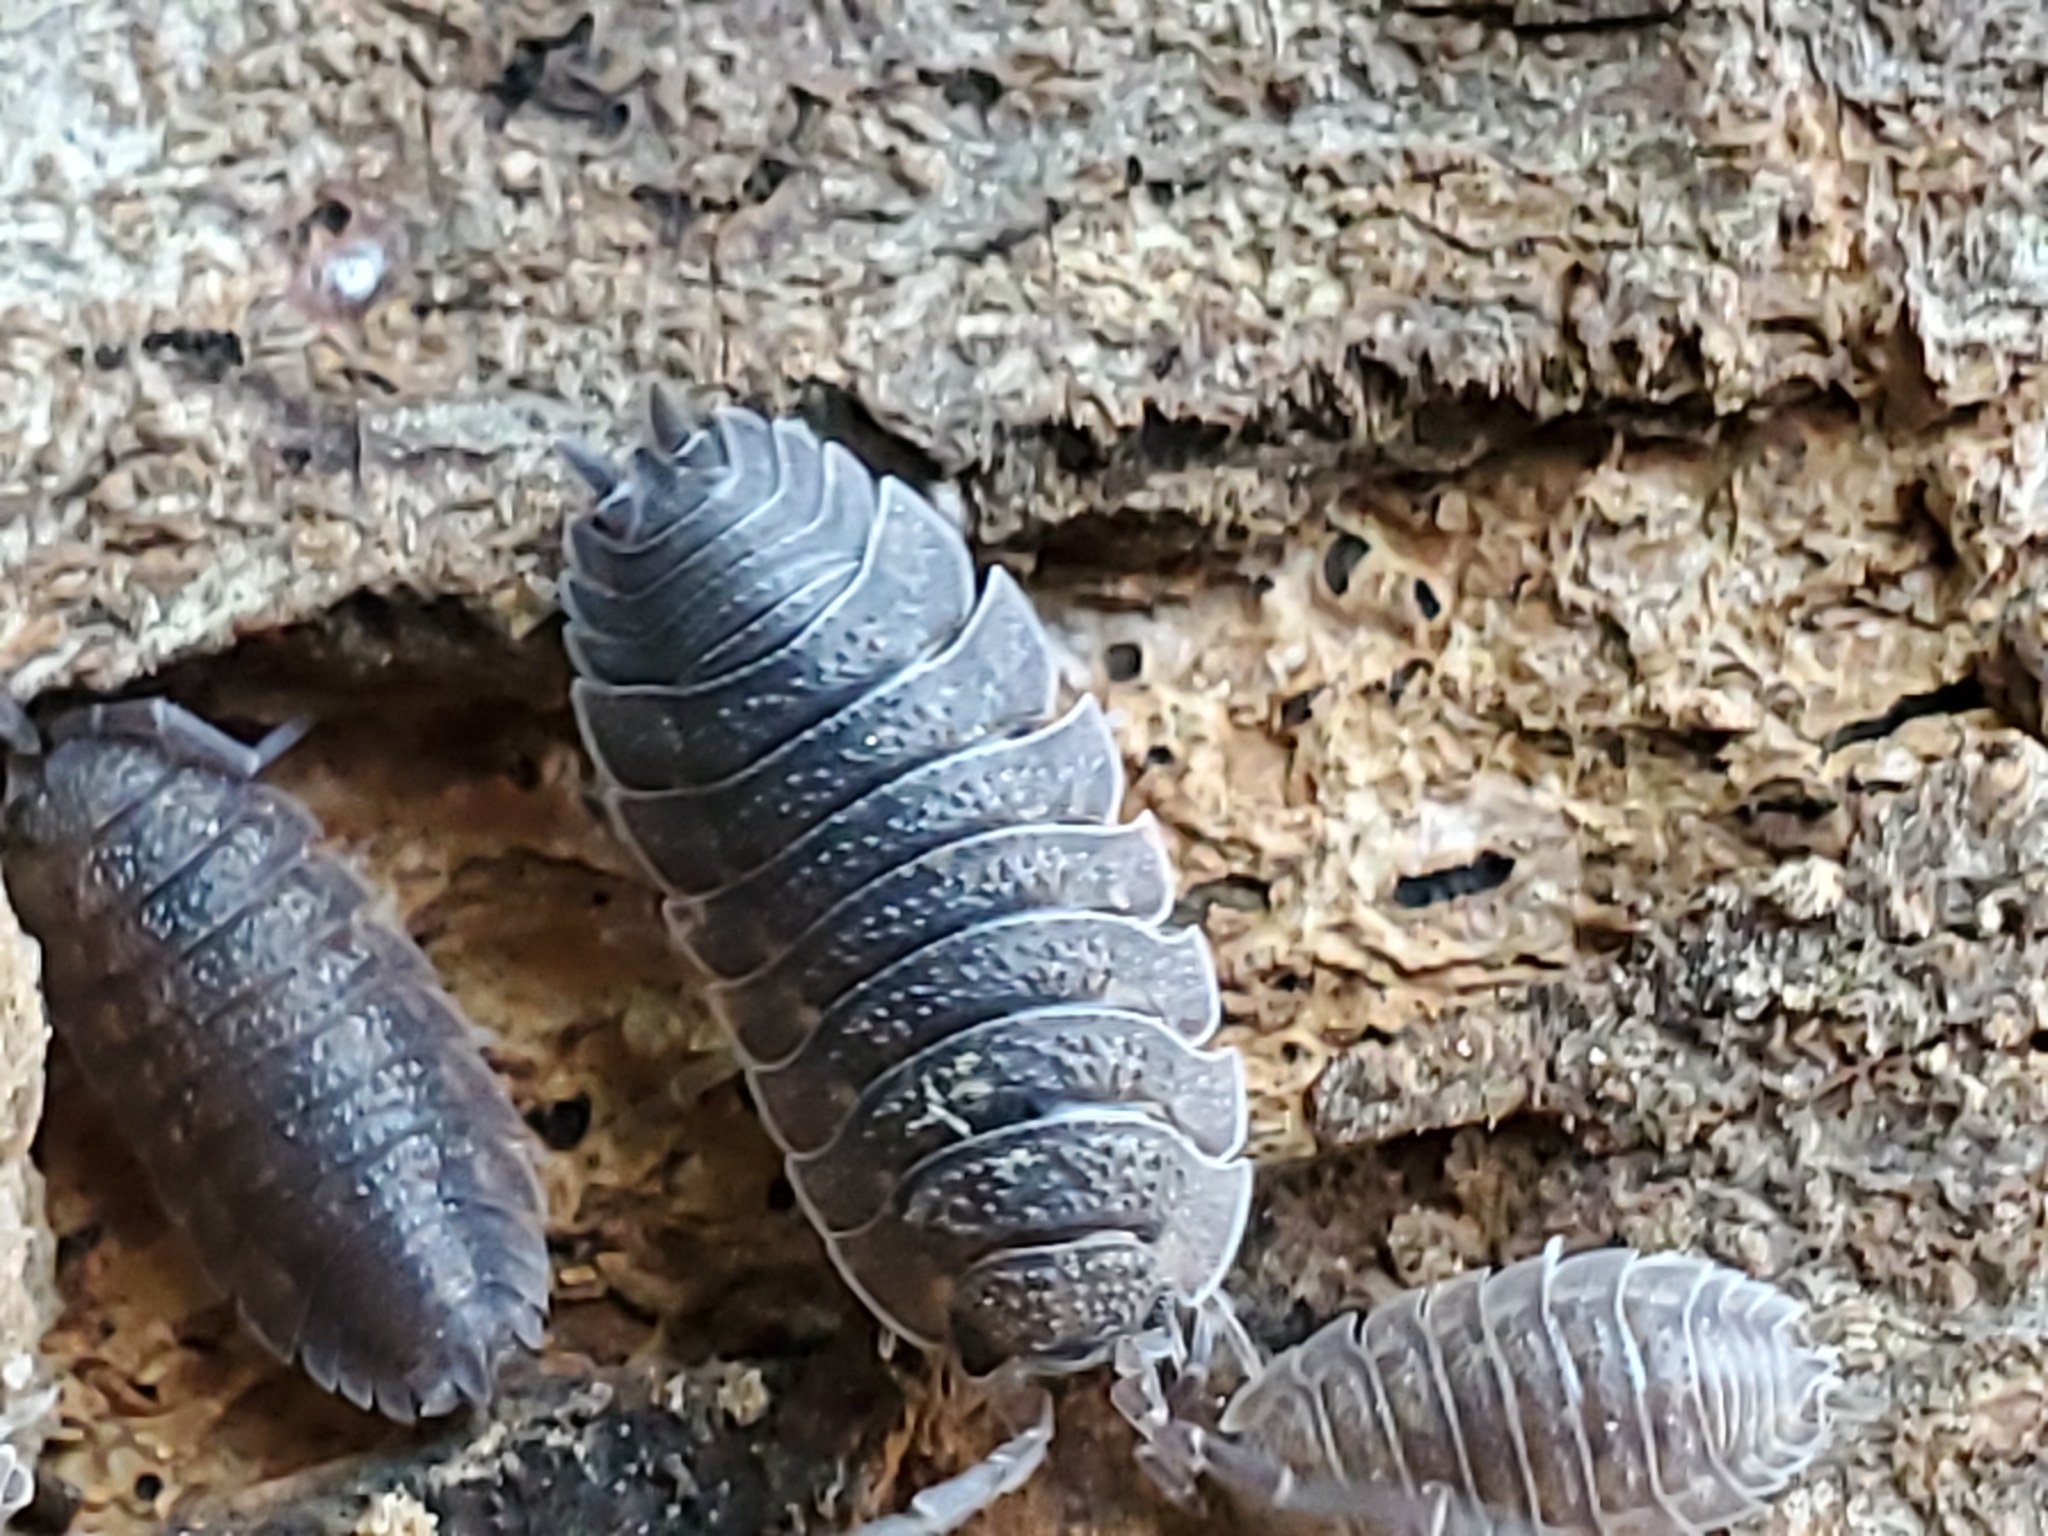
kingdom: Animalia
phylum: Arthropoda
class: Malacostraca
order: Isopoda
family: Porcellionidae
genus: Porcellio
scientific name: Porcellio scaber
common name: Common rough woodlouse
